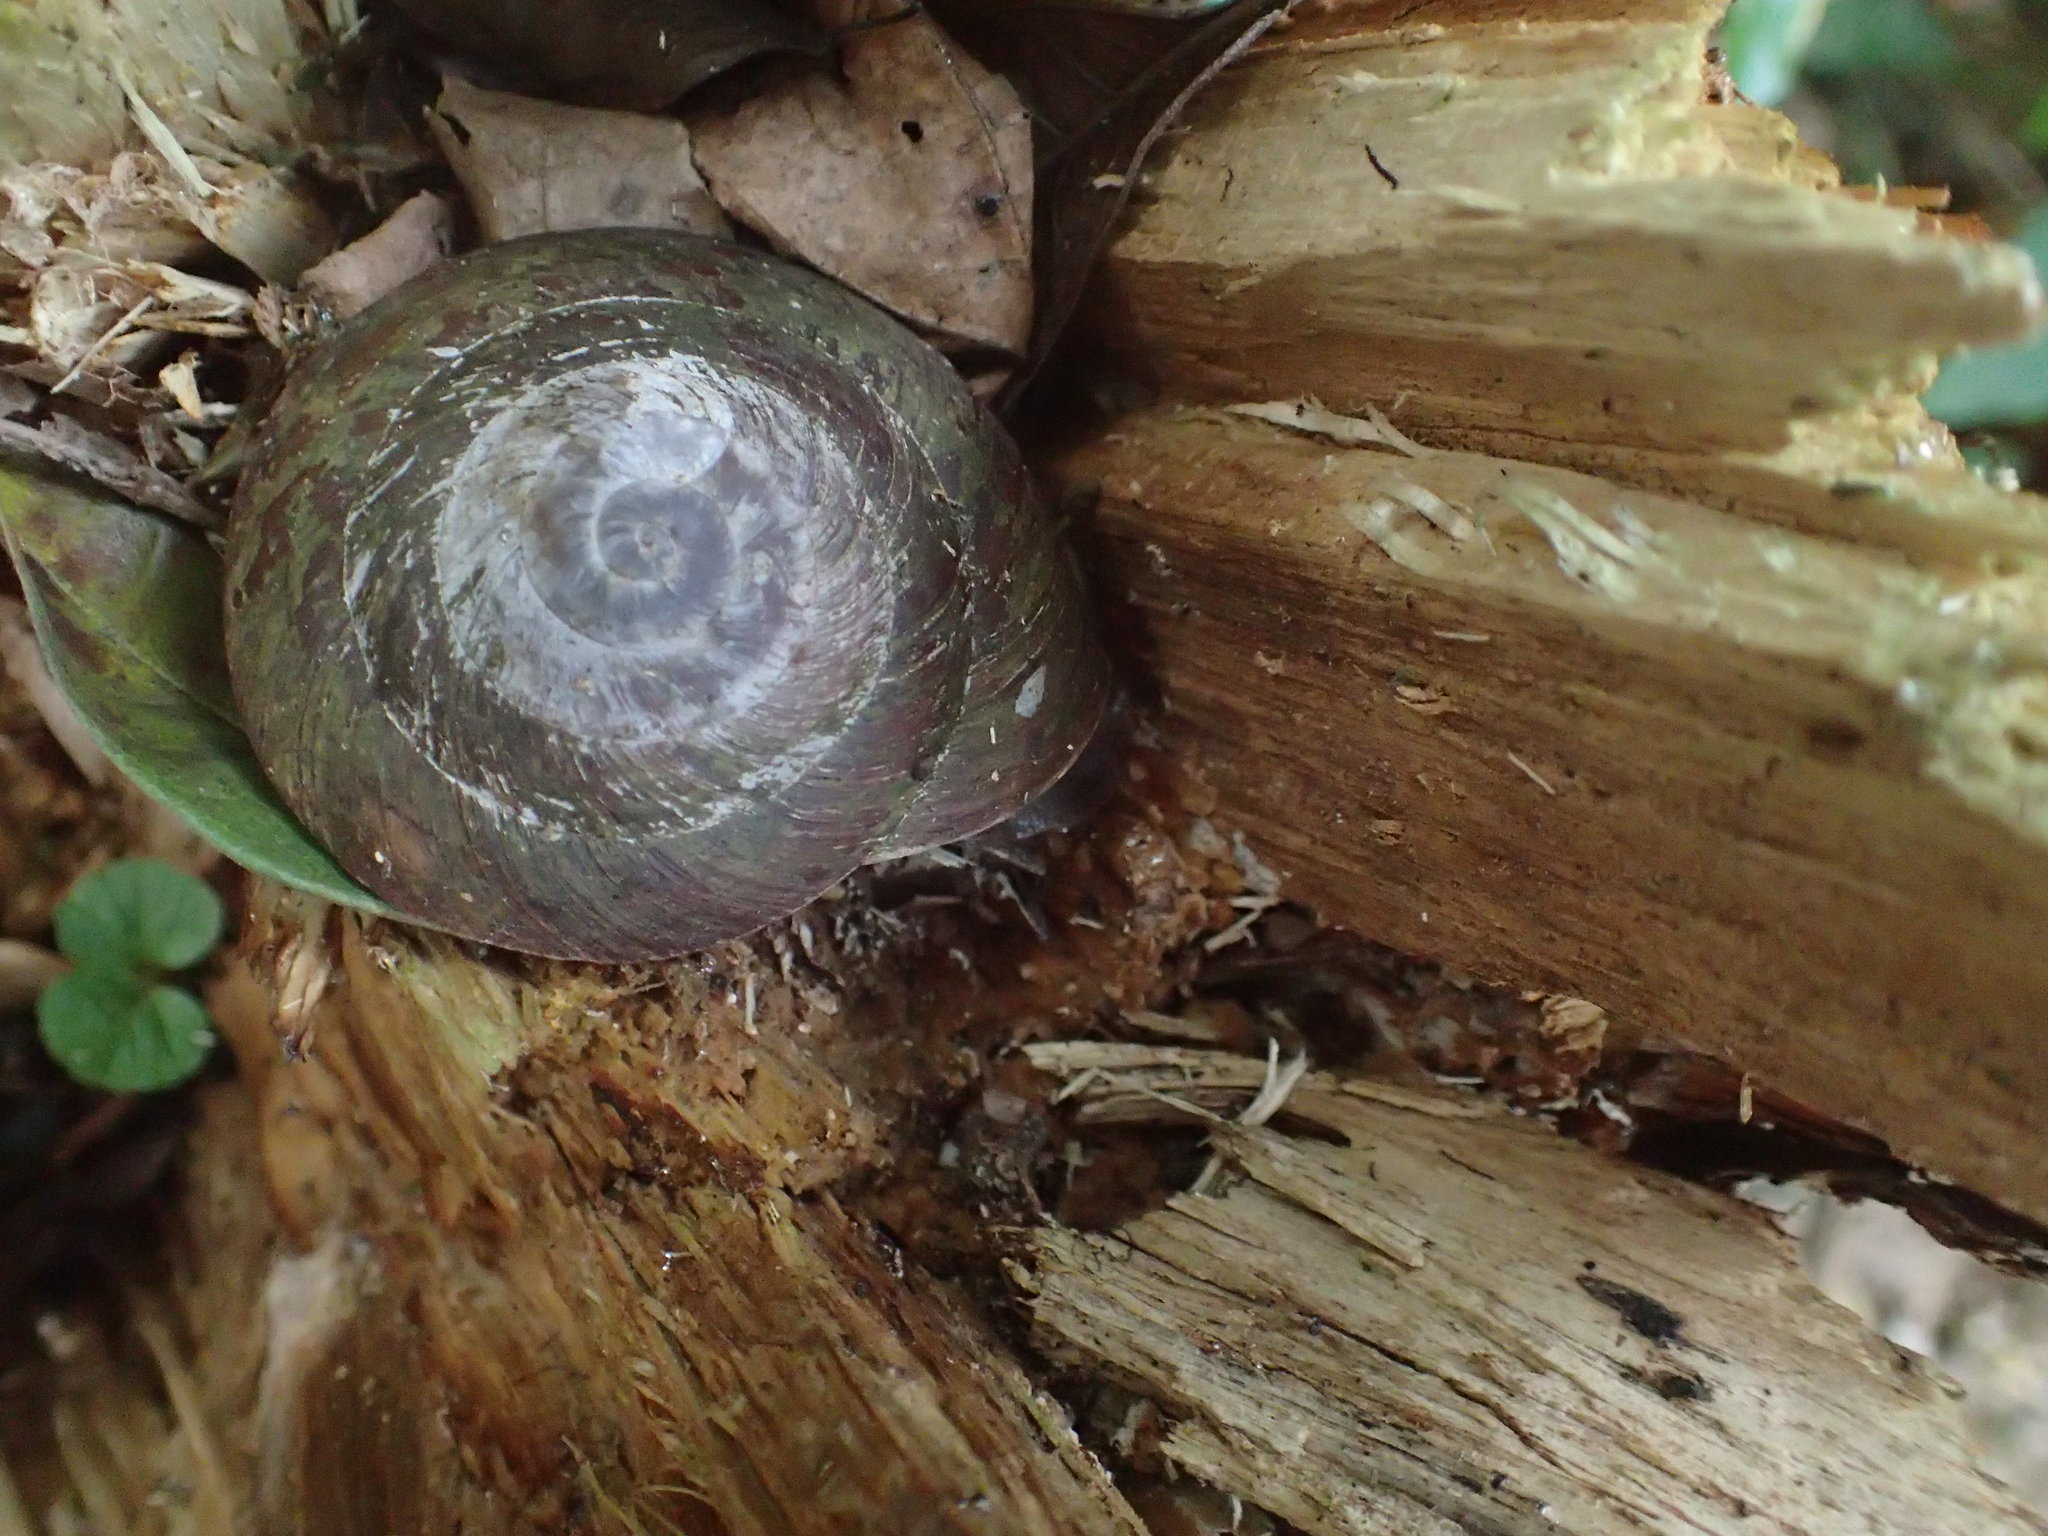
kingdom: Animalia
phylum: Mollusca
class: Gastropoda
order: Stylommatophora
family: Solaropsidae
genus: Caracolus
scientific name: Caracolus carocolla
